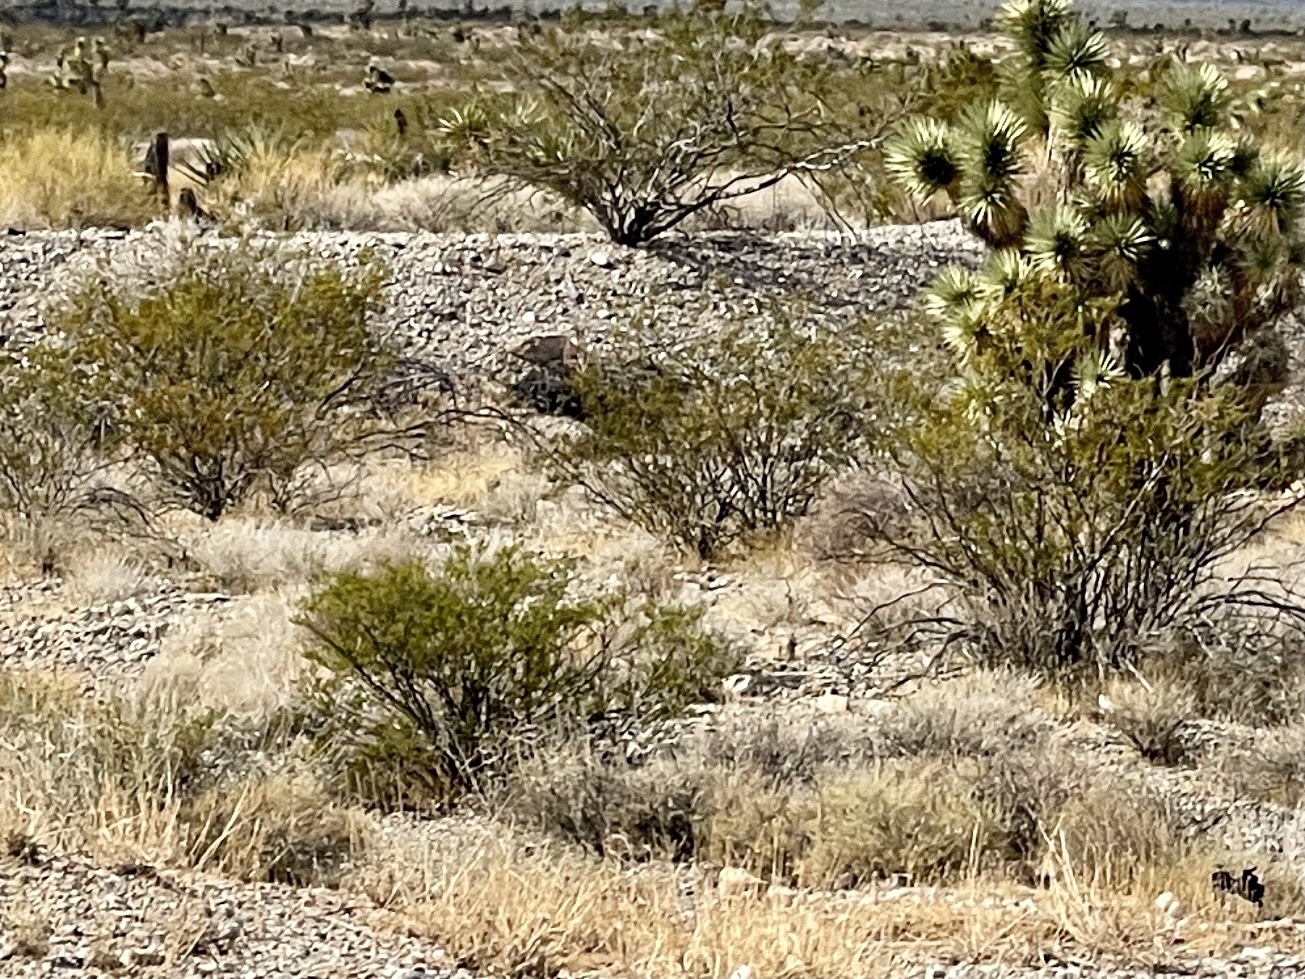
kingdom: Plantae
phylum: Tracheophyta
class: Magnoliopsida
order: Zygophyllales
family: Zygophyllaceae
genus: Larrea
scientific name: Larrea tridentata
